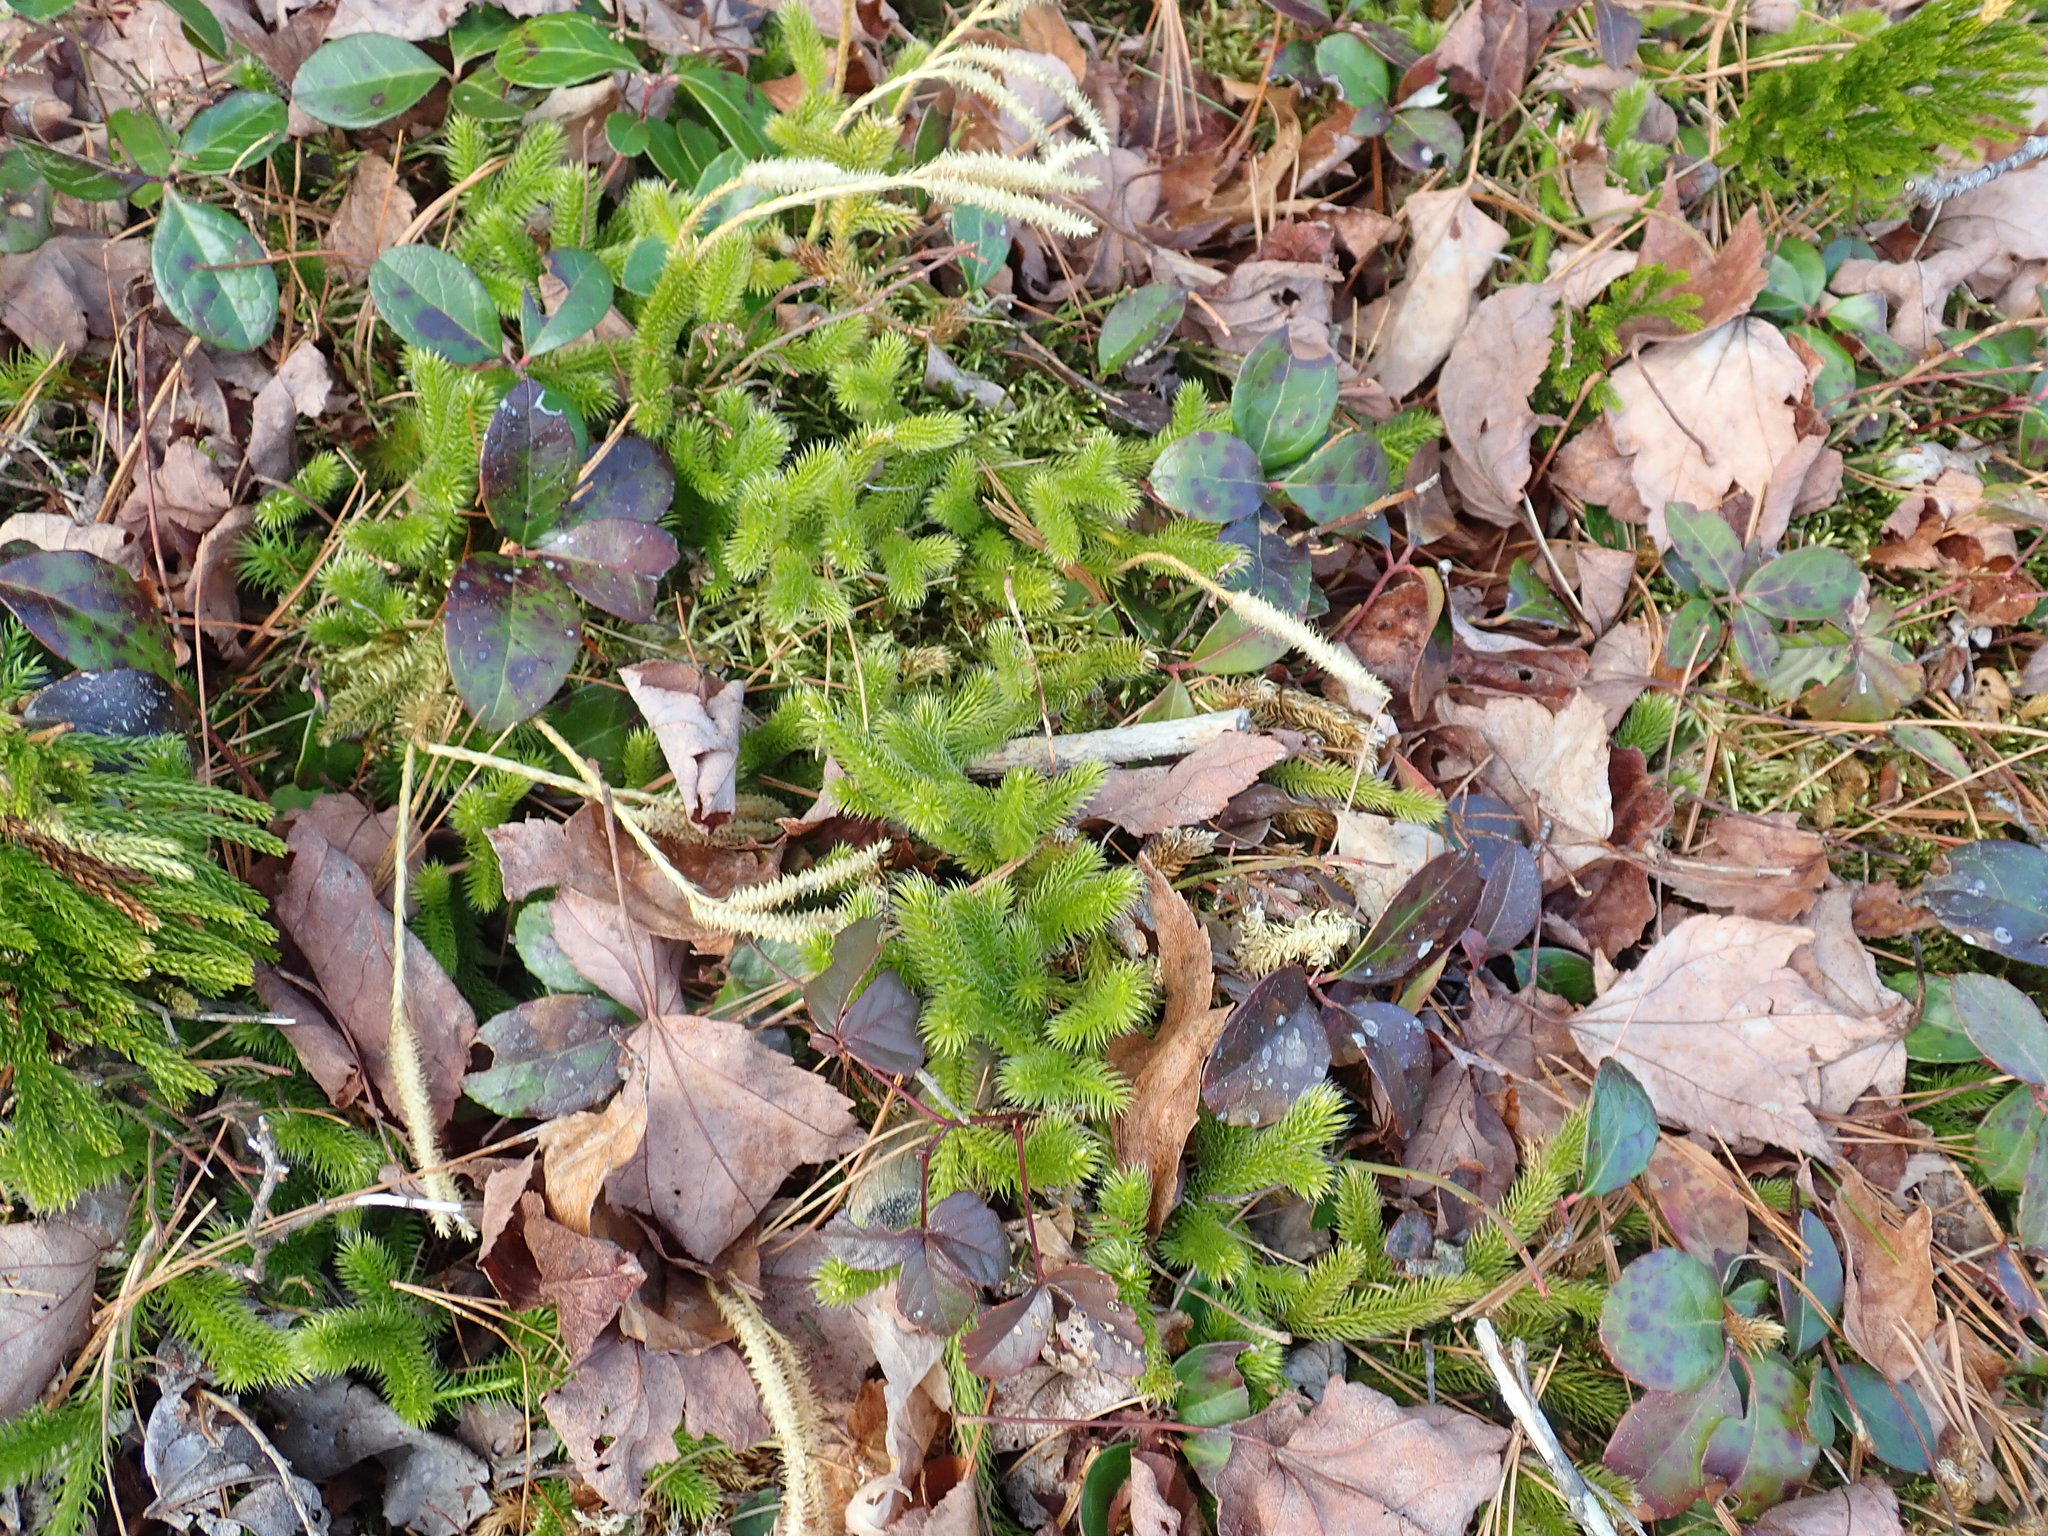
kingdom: Plantae
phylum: Tracheophyta
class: Lycopodiopsida
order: Lycopodiales
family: Lycopodiaceae
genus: Lycopodium
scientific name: Lycopodium clavatum
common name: Stag's-horn clubmoss
